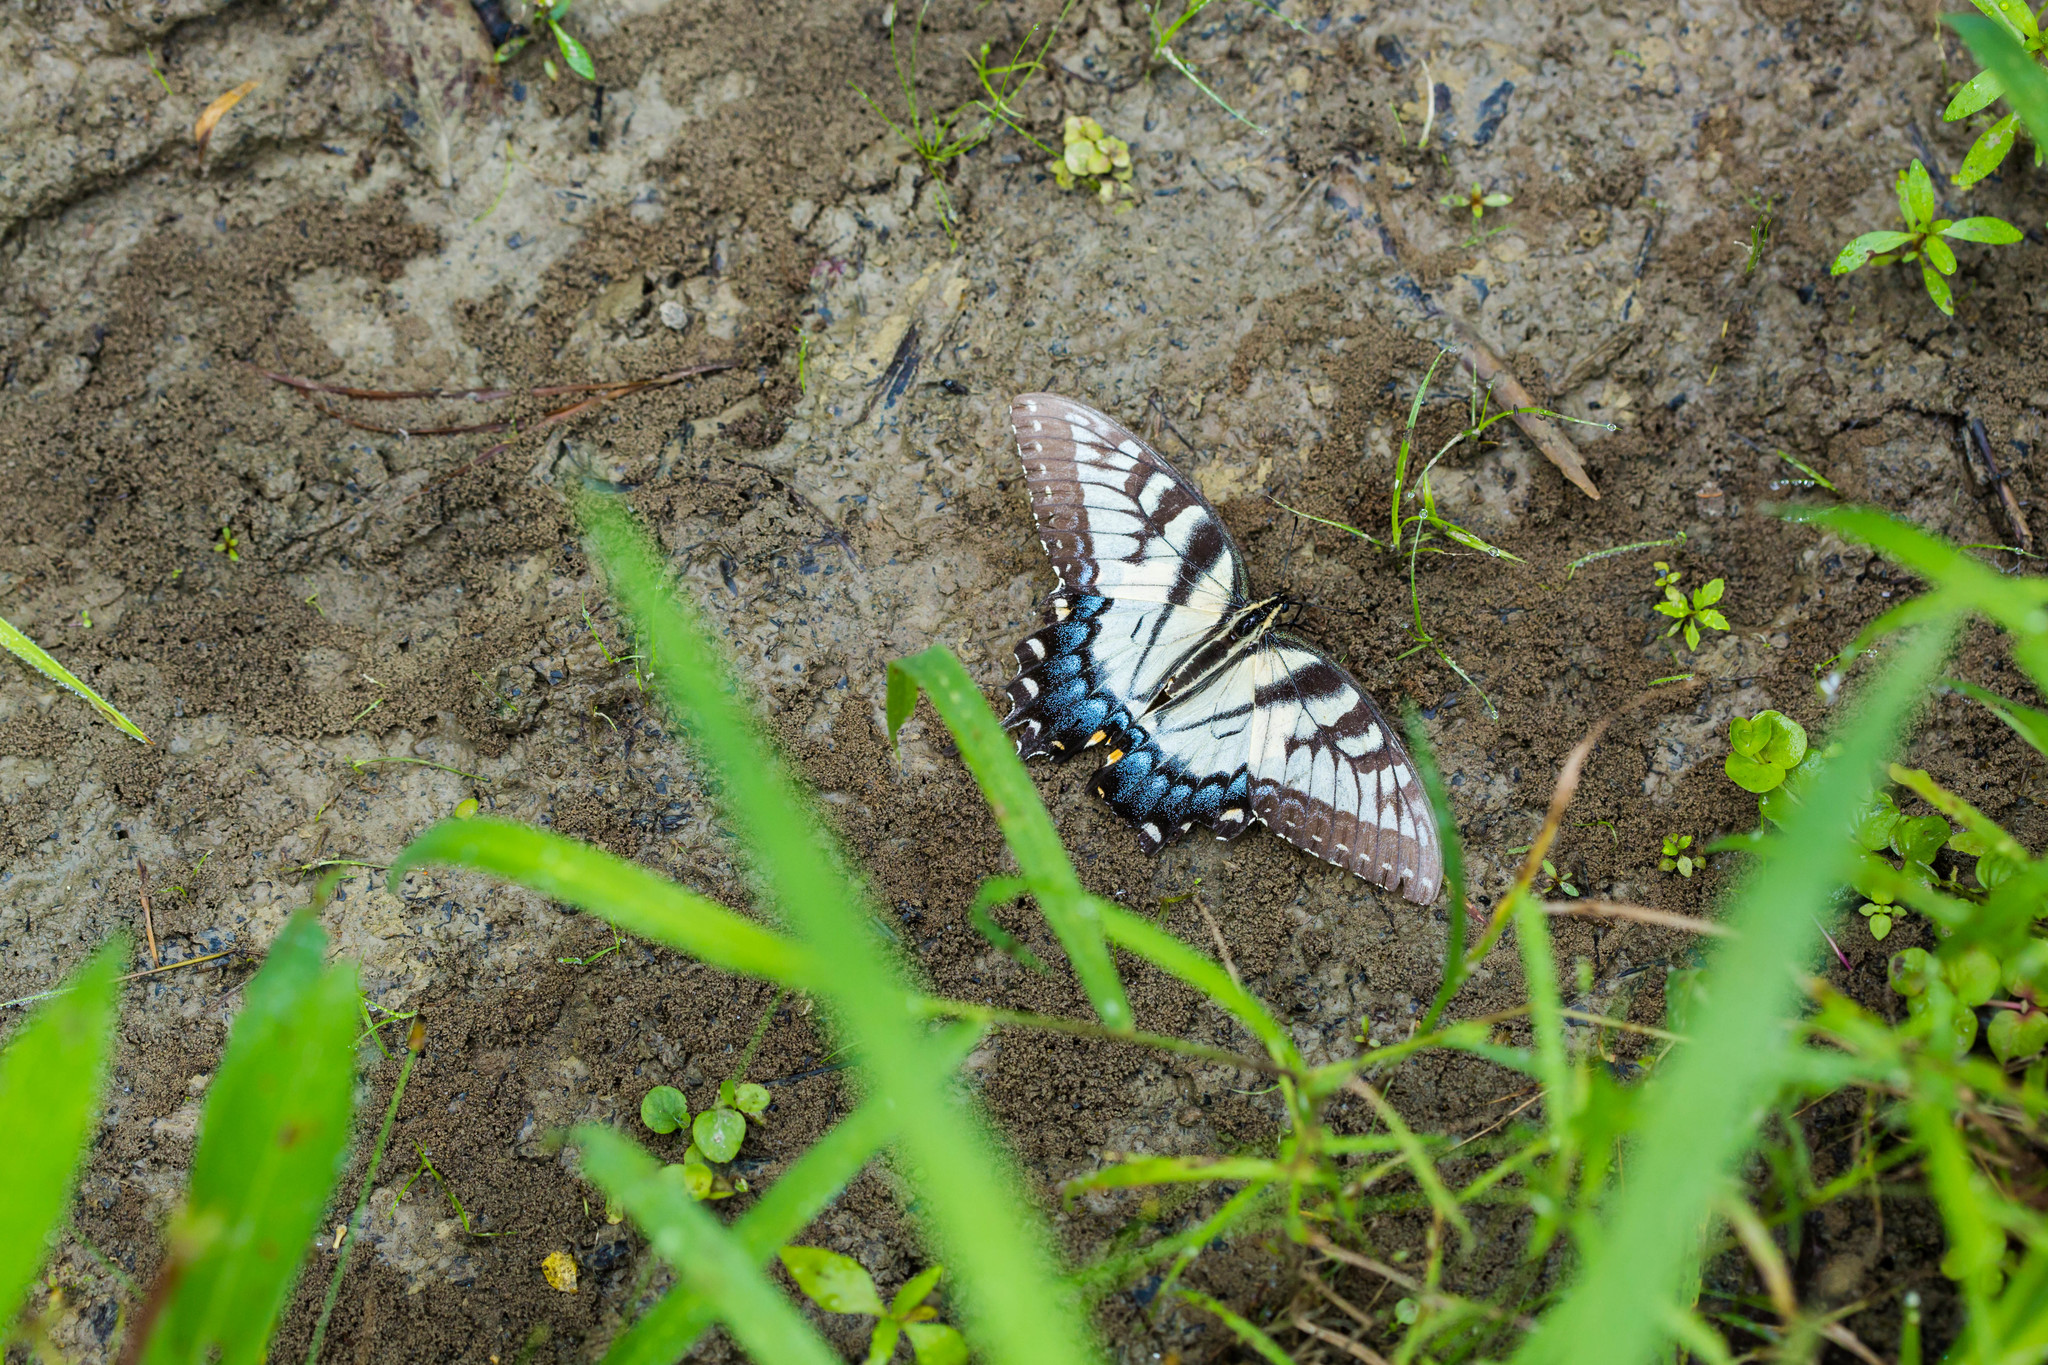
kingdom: Animalia
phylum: Arthropoda
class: Insecta
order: Lepidoptera
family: Papilionidae
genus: Papilio
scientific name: Papilio glaucus
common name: Tiger swallowtail
